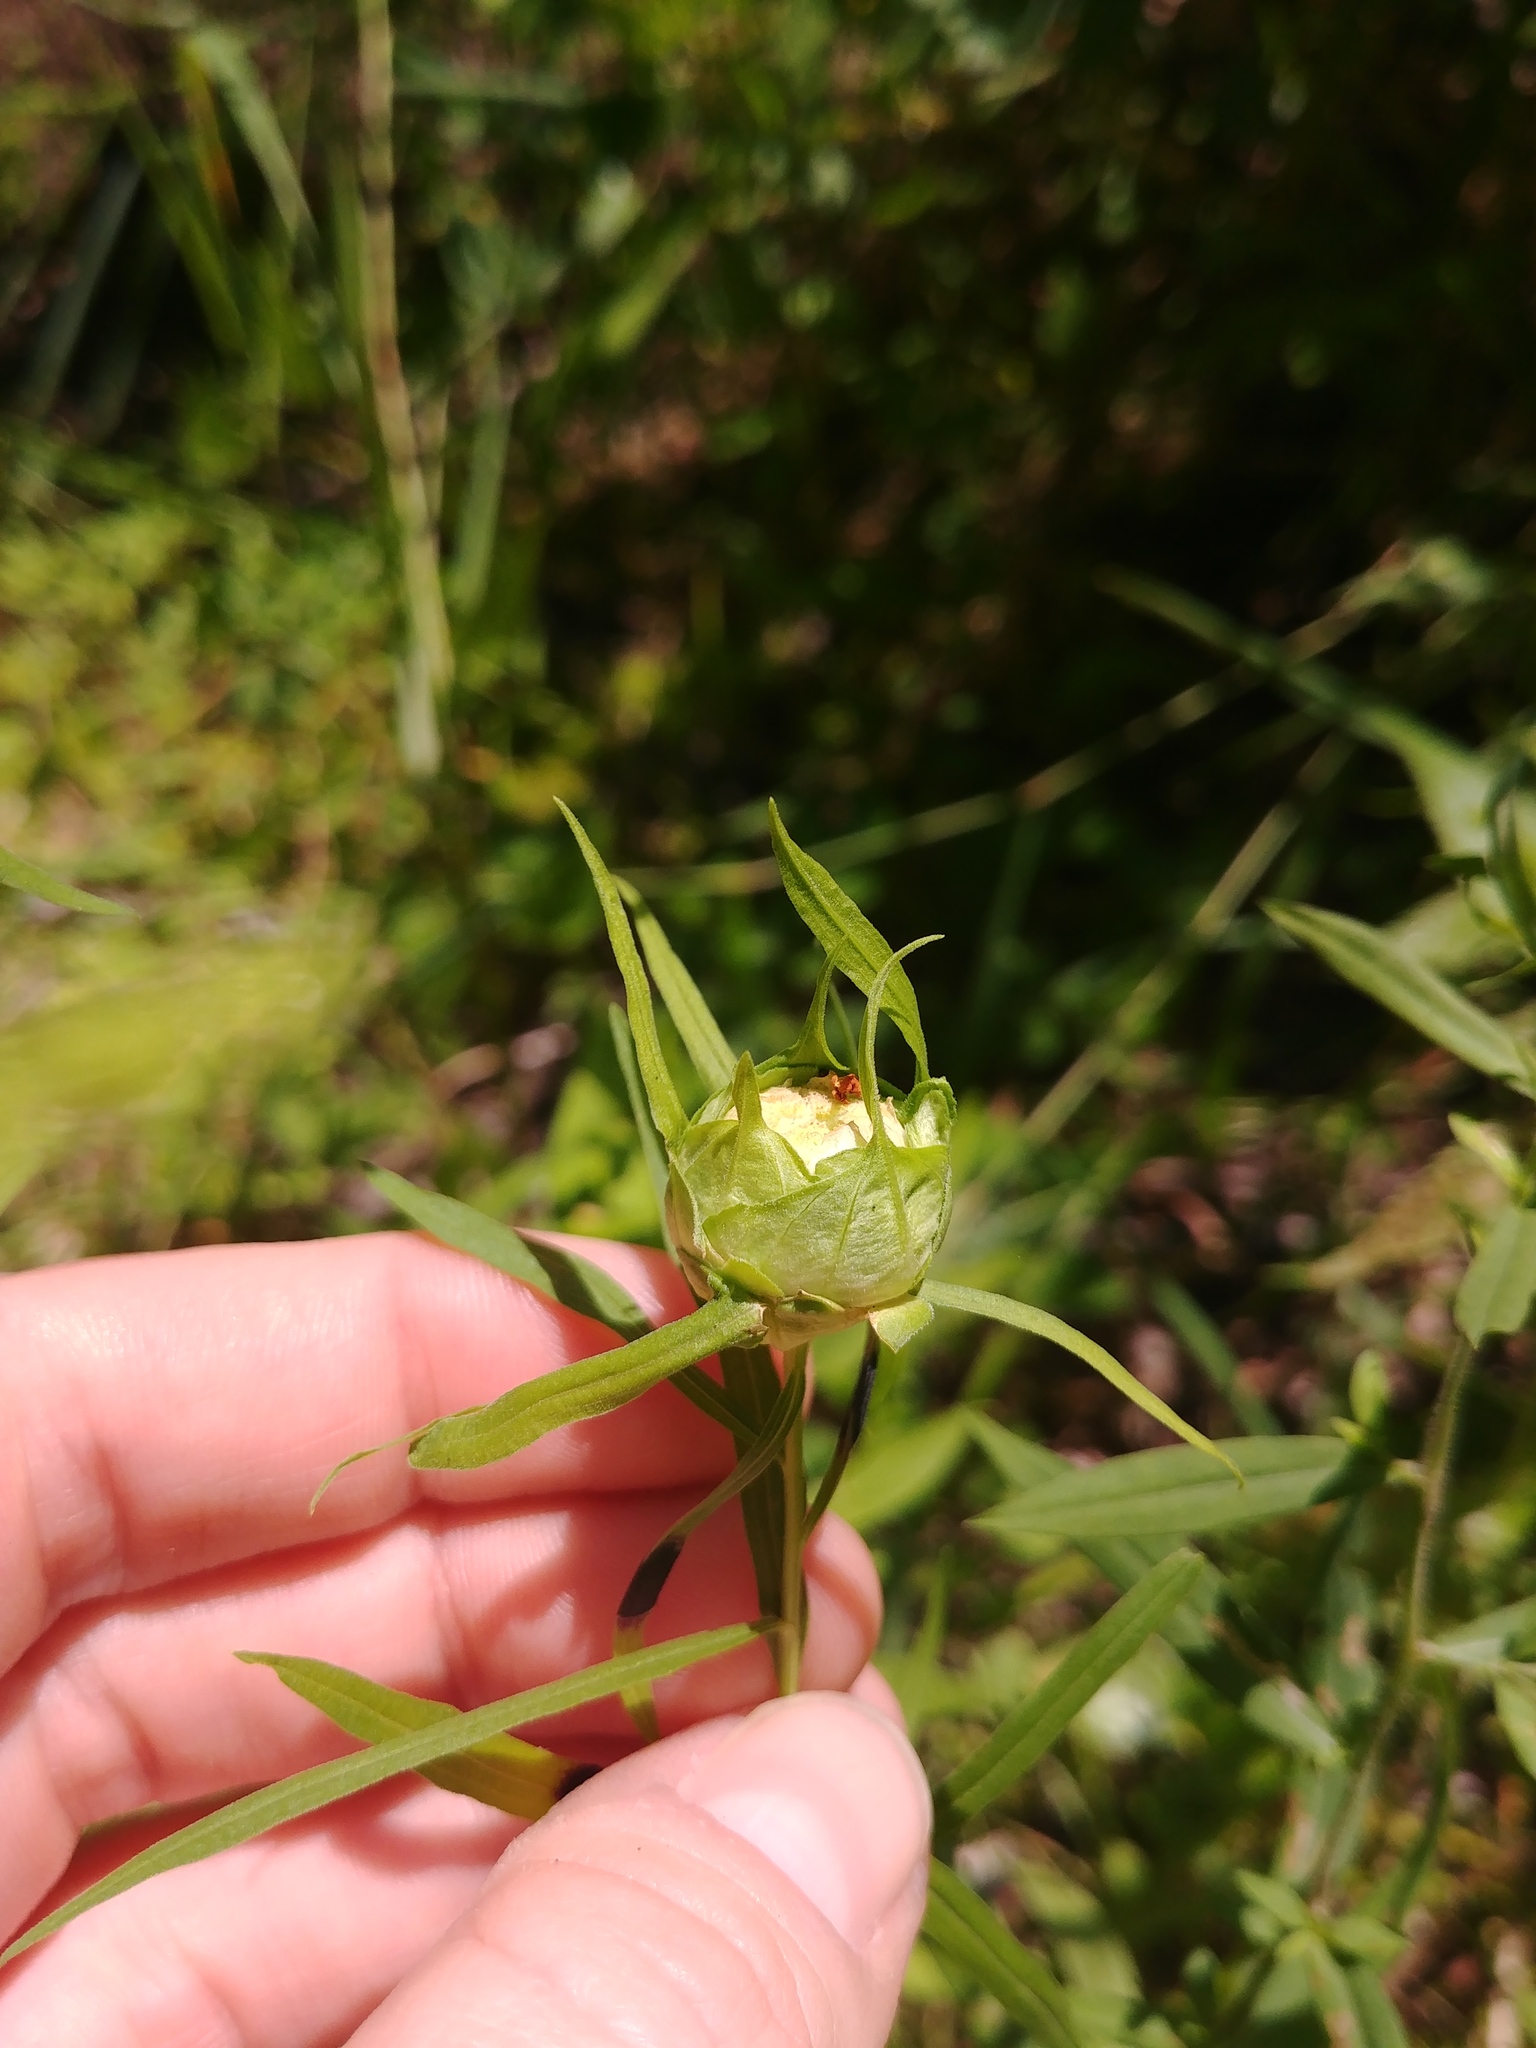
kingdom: Animalia
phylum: Arthropoda
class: Insecta
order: Diptera
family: Cecidomyiidae
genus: Rhopalomyia
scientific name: Rhopalomyia lobata
